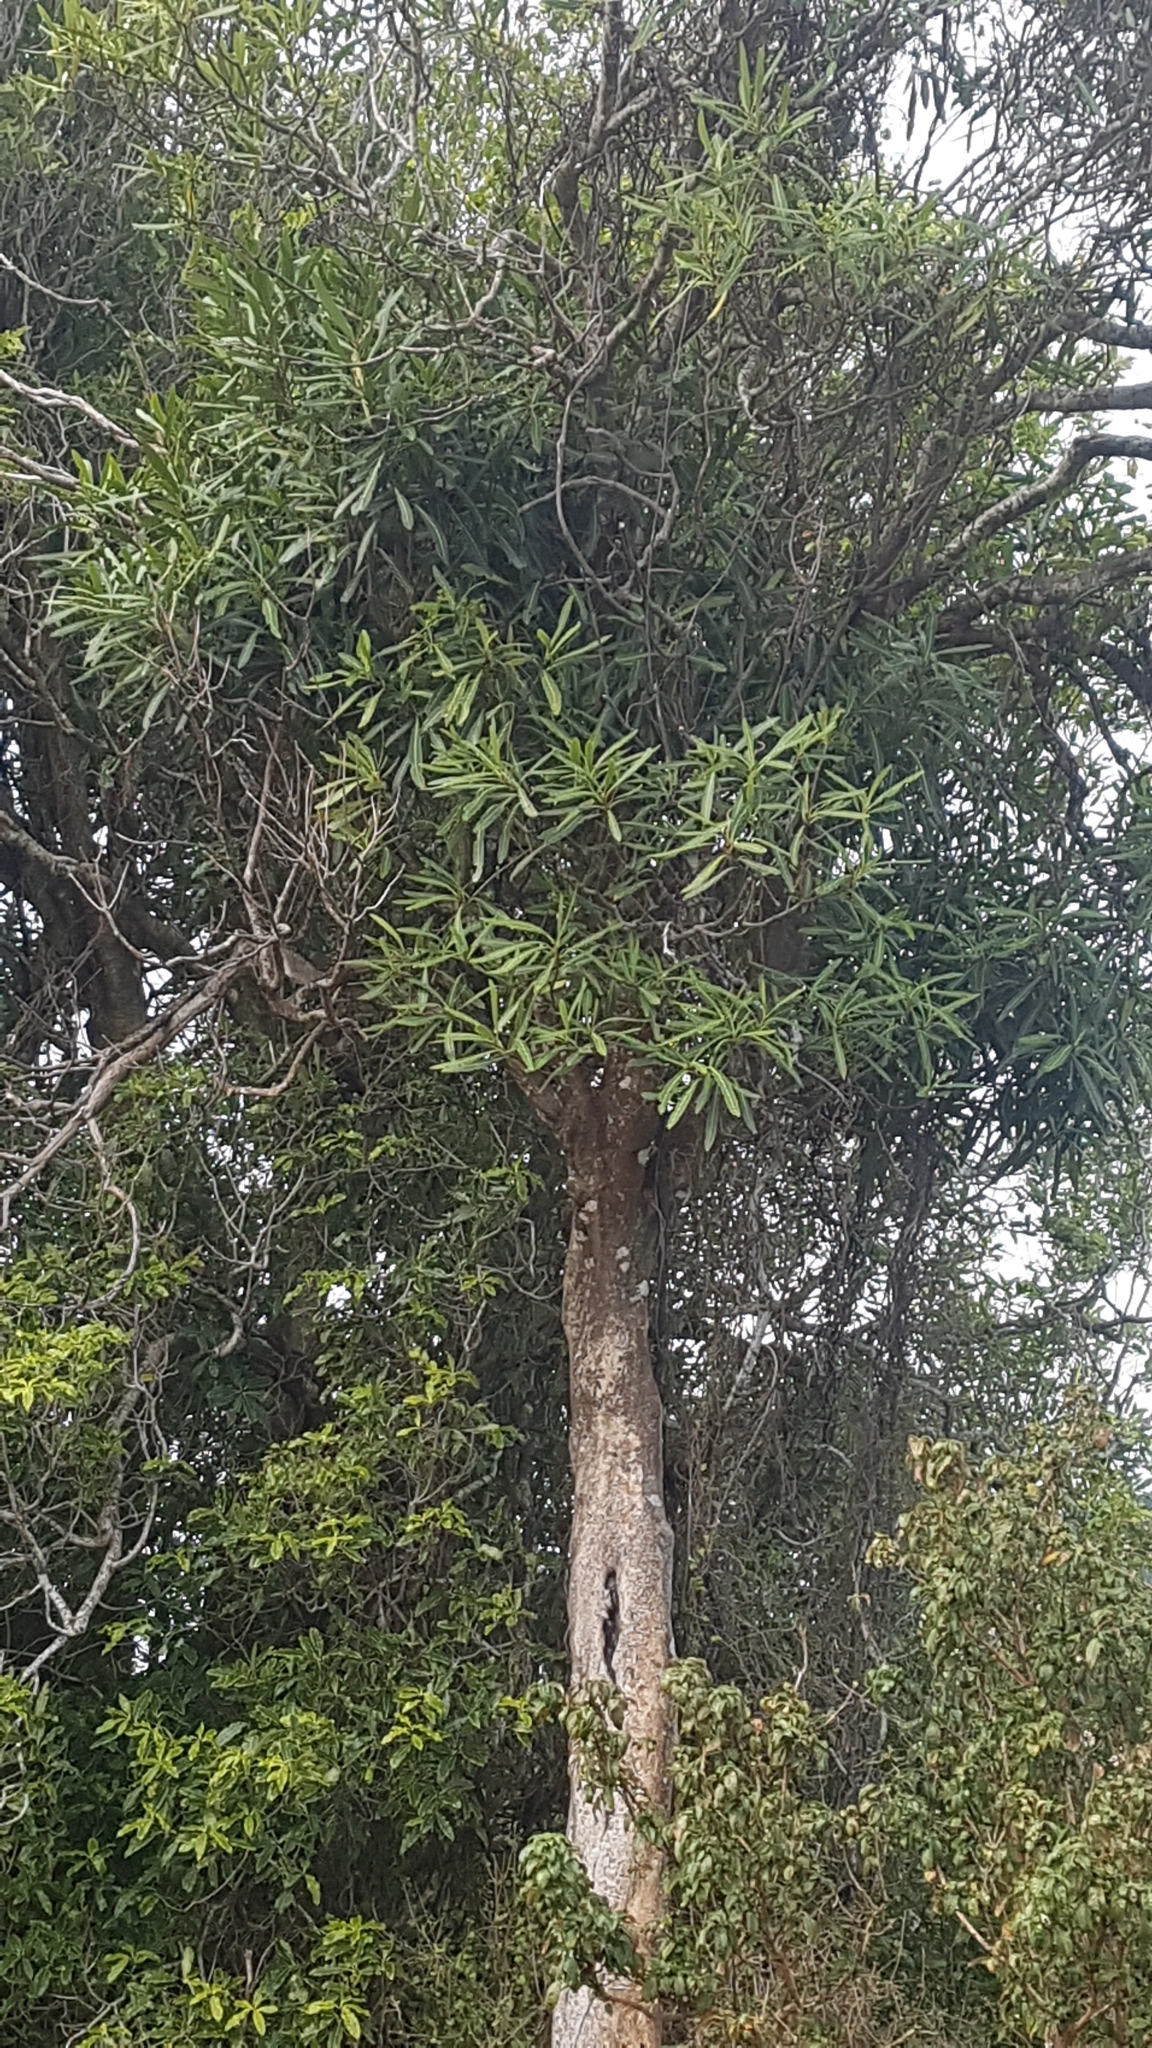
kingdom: Plantae
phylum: Tracheophyta
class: Magnoliopsida
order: Apiales
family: Araliaceae
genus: Pseudopanax
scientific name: Pseudopanax crassifolius
